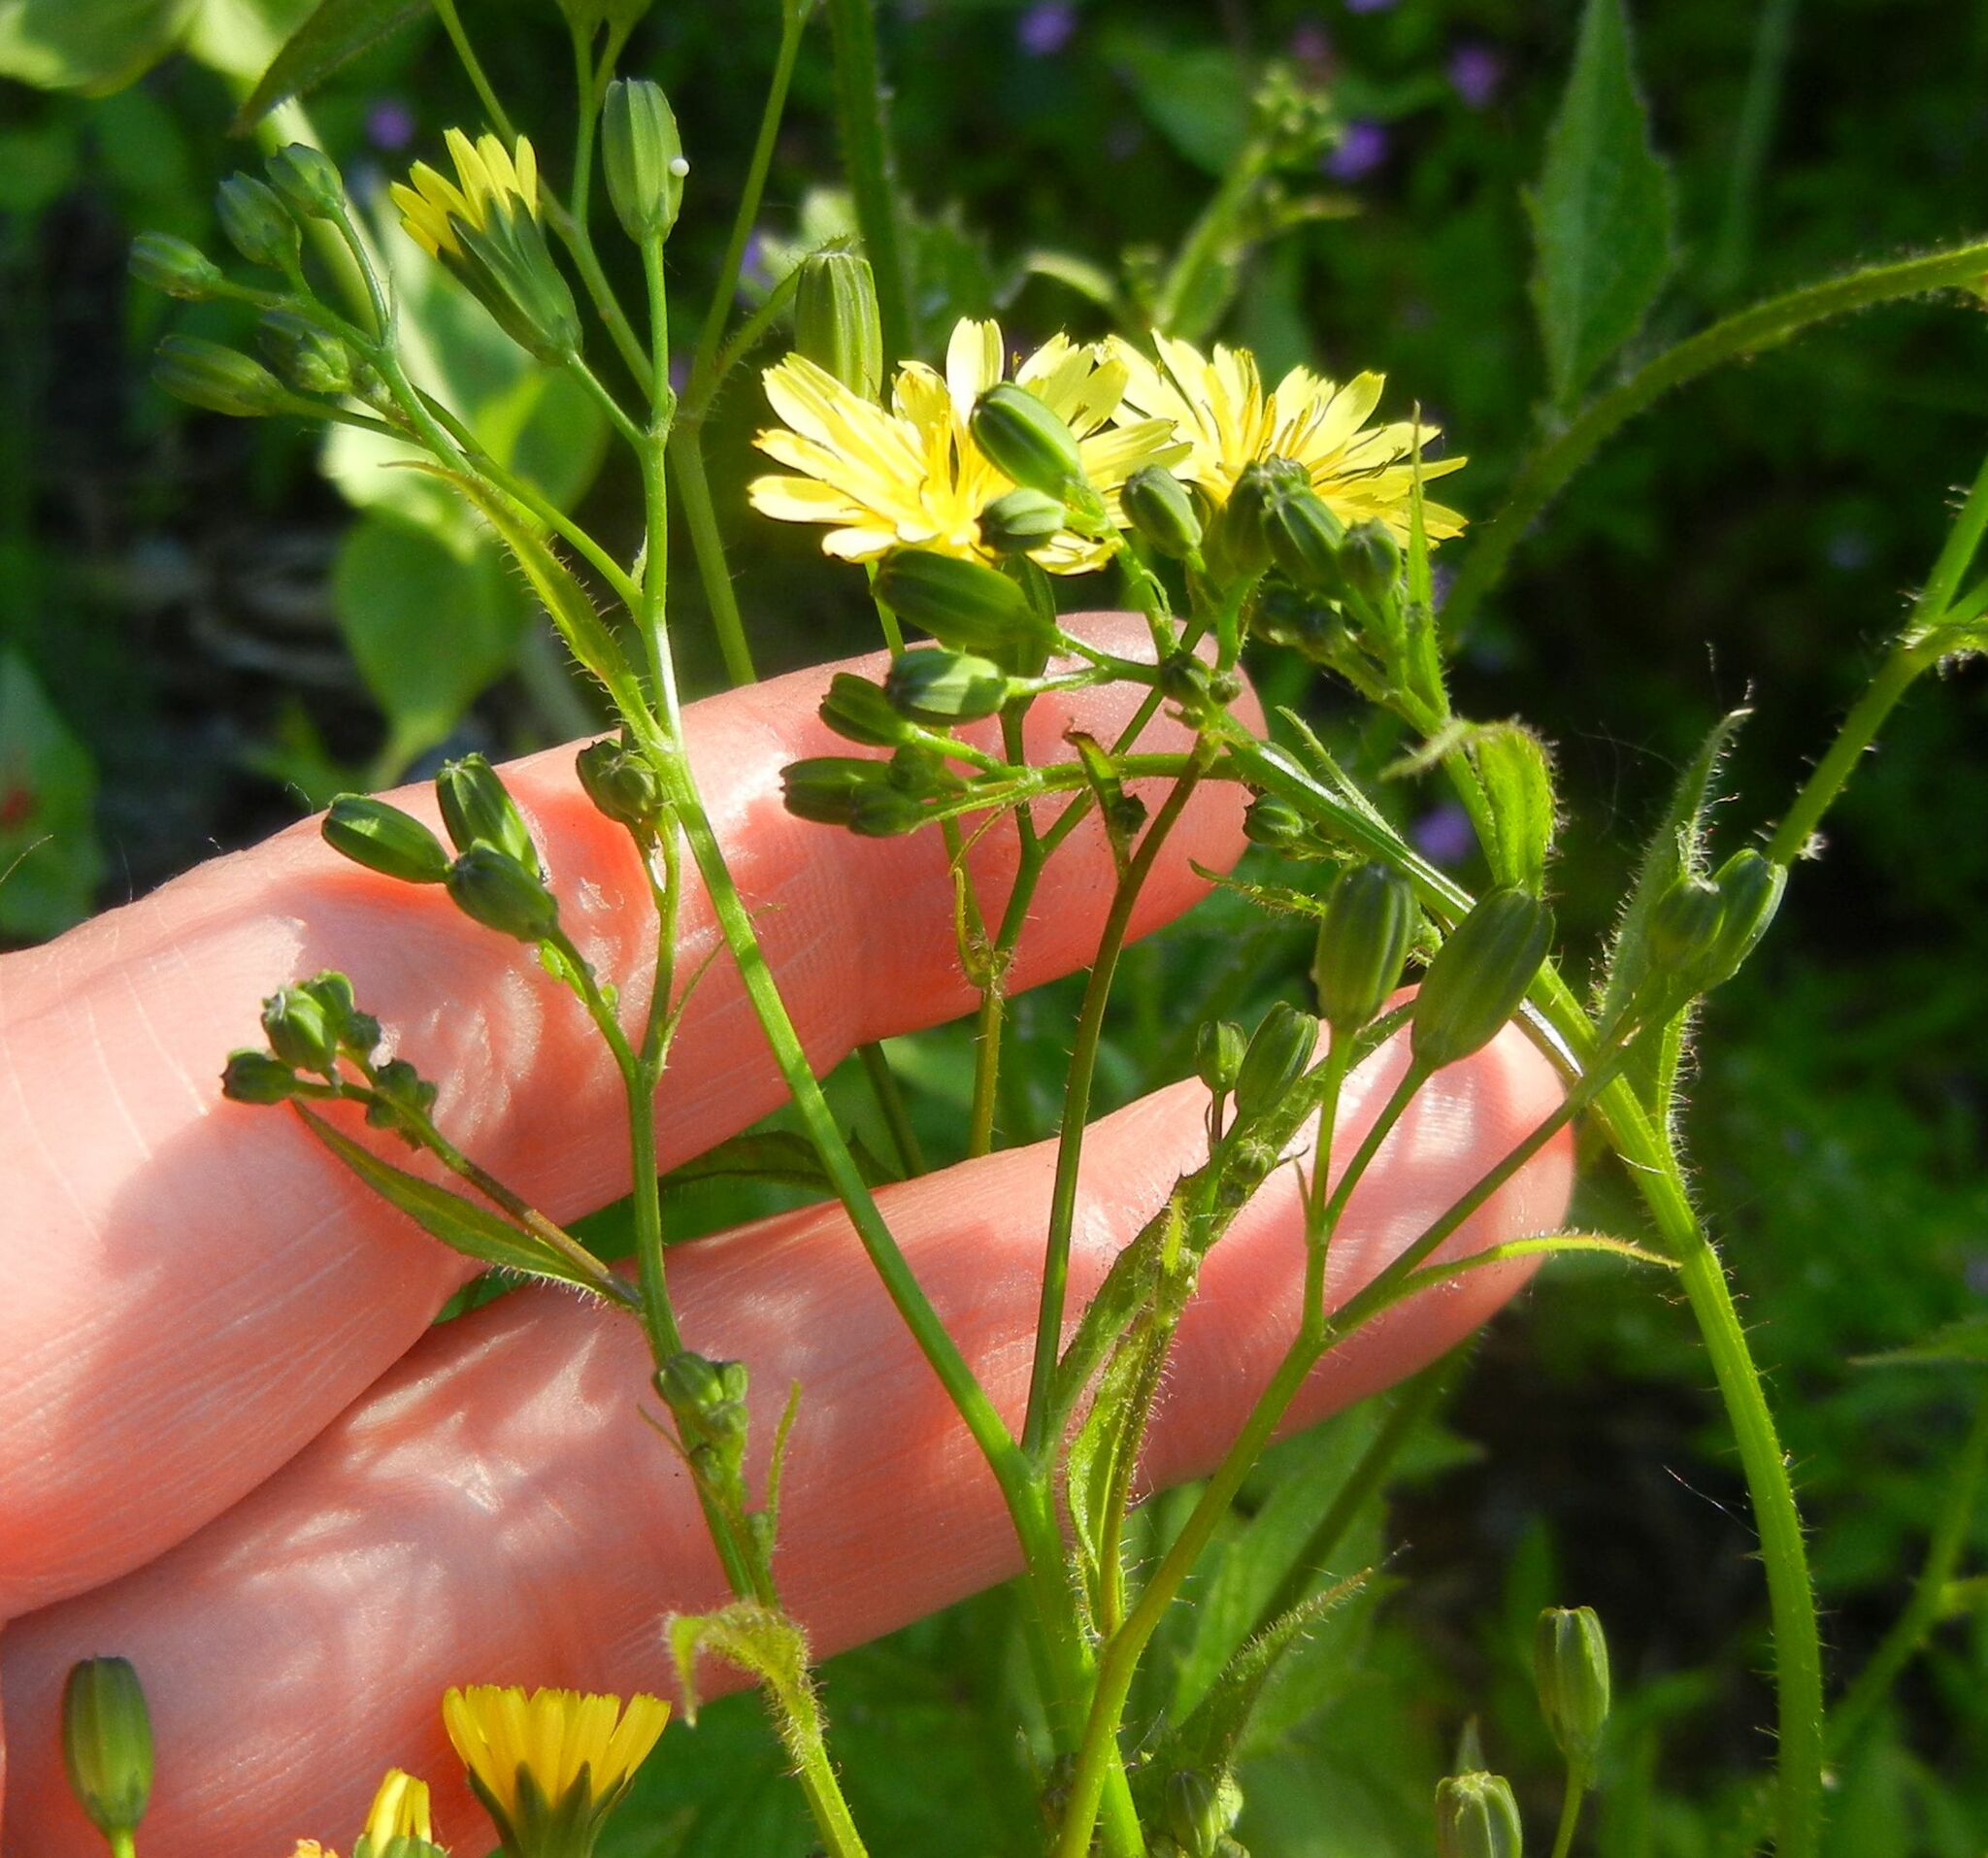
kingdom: Plantae
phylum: Tracheophyta
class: Magnoliopsida
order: Asterales
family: Asteraceae
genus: Lapsana
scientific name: Lapsana communis
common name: Nipplewort
